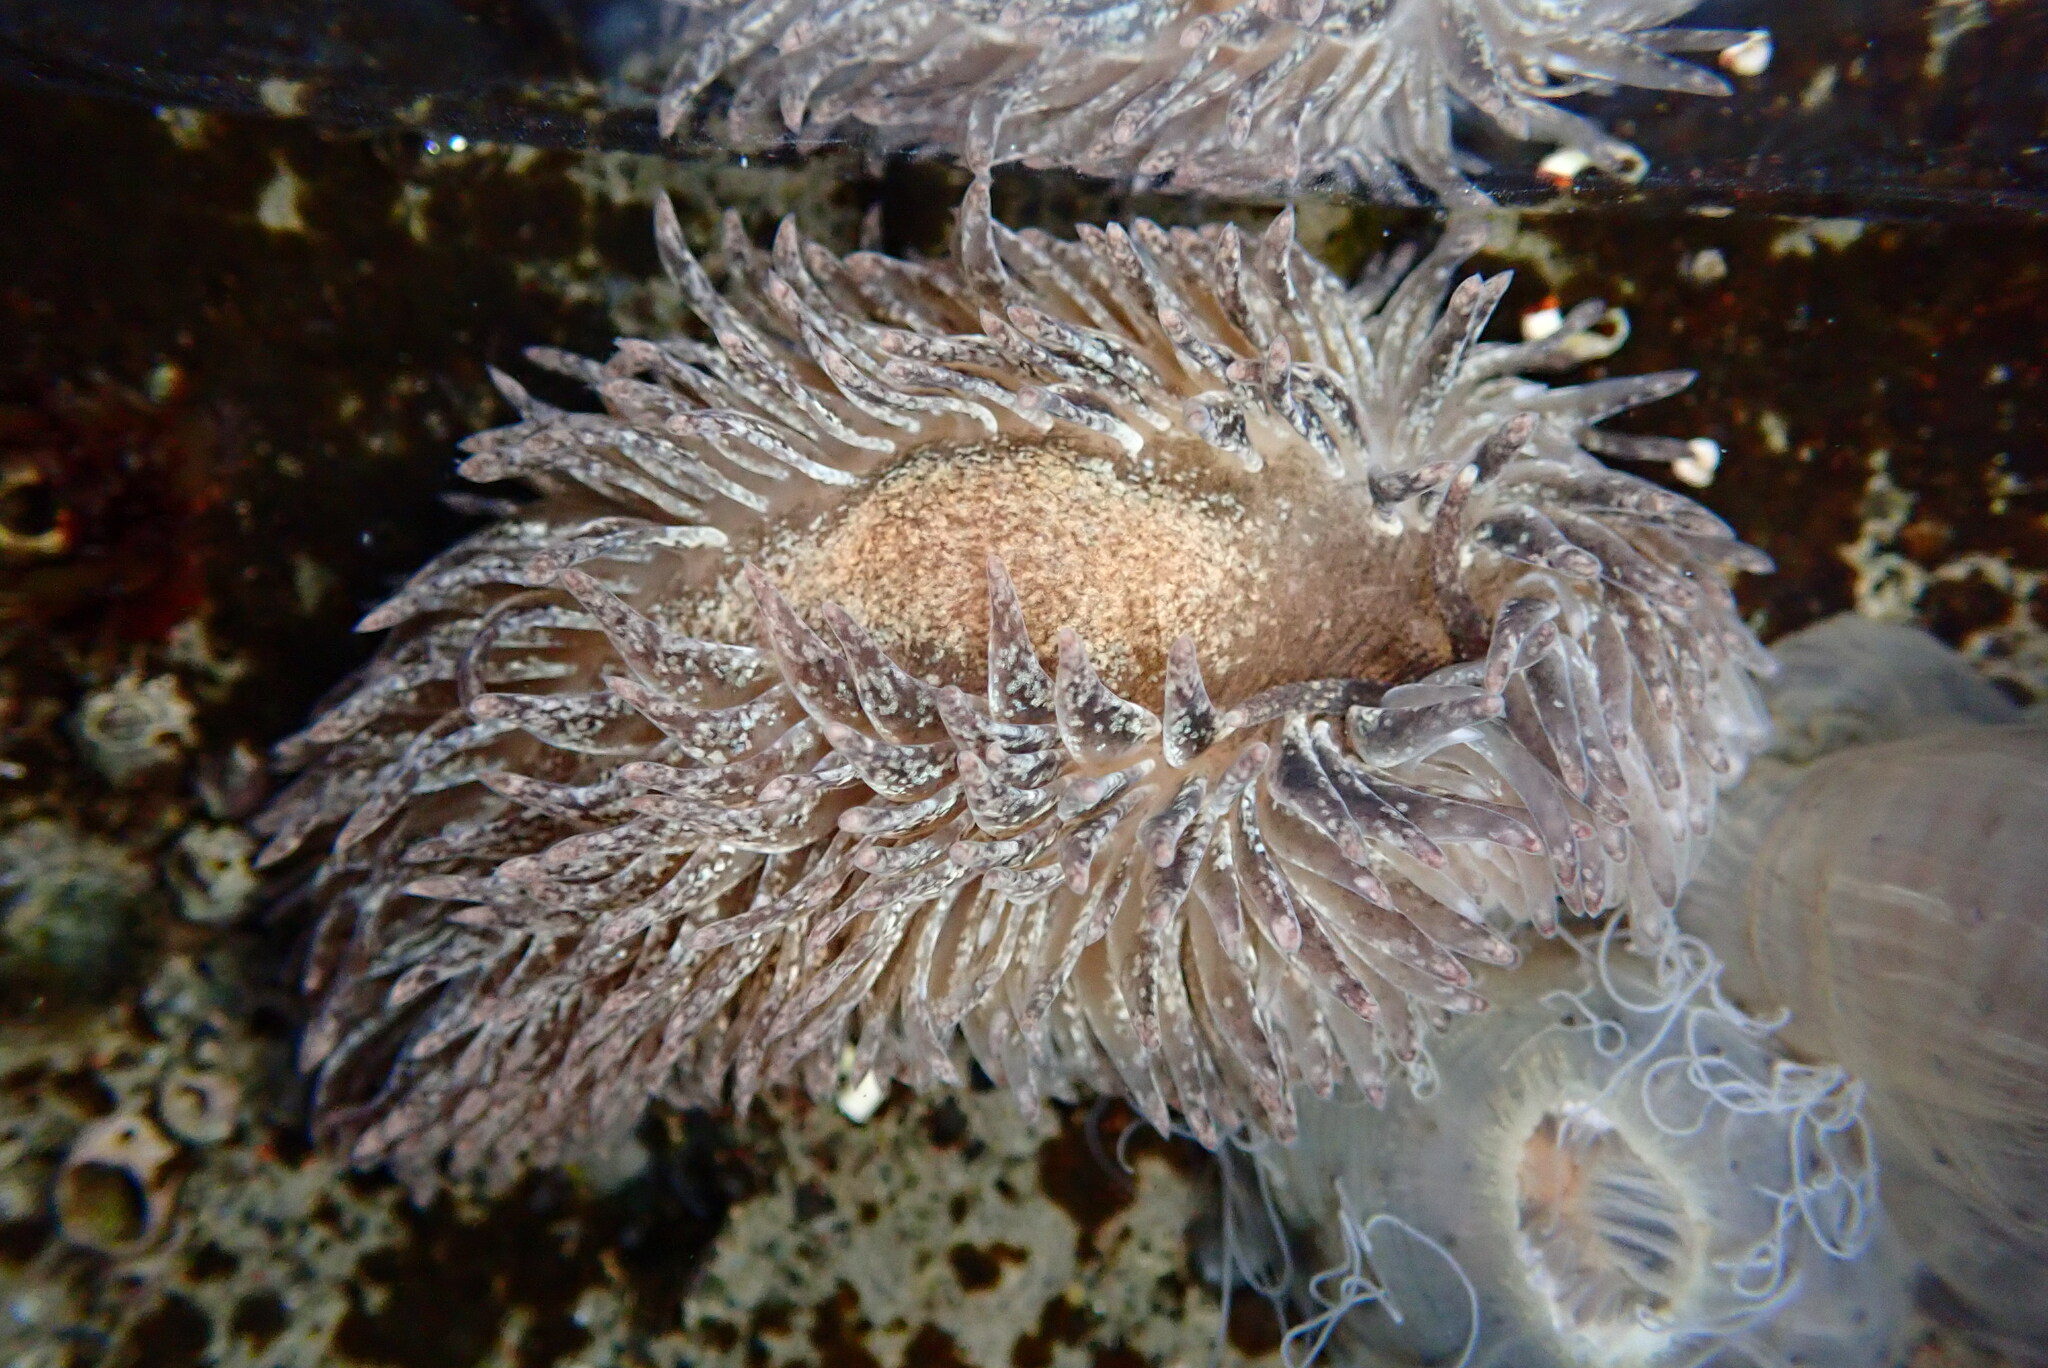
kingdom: Animalia
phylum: Mollusca
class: Gastropoda
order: Nudibranchia
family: Aeolidiidae
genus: Aeolidia
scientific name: Aeolidia papillosa
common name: Common grey sea slug
